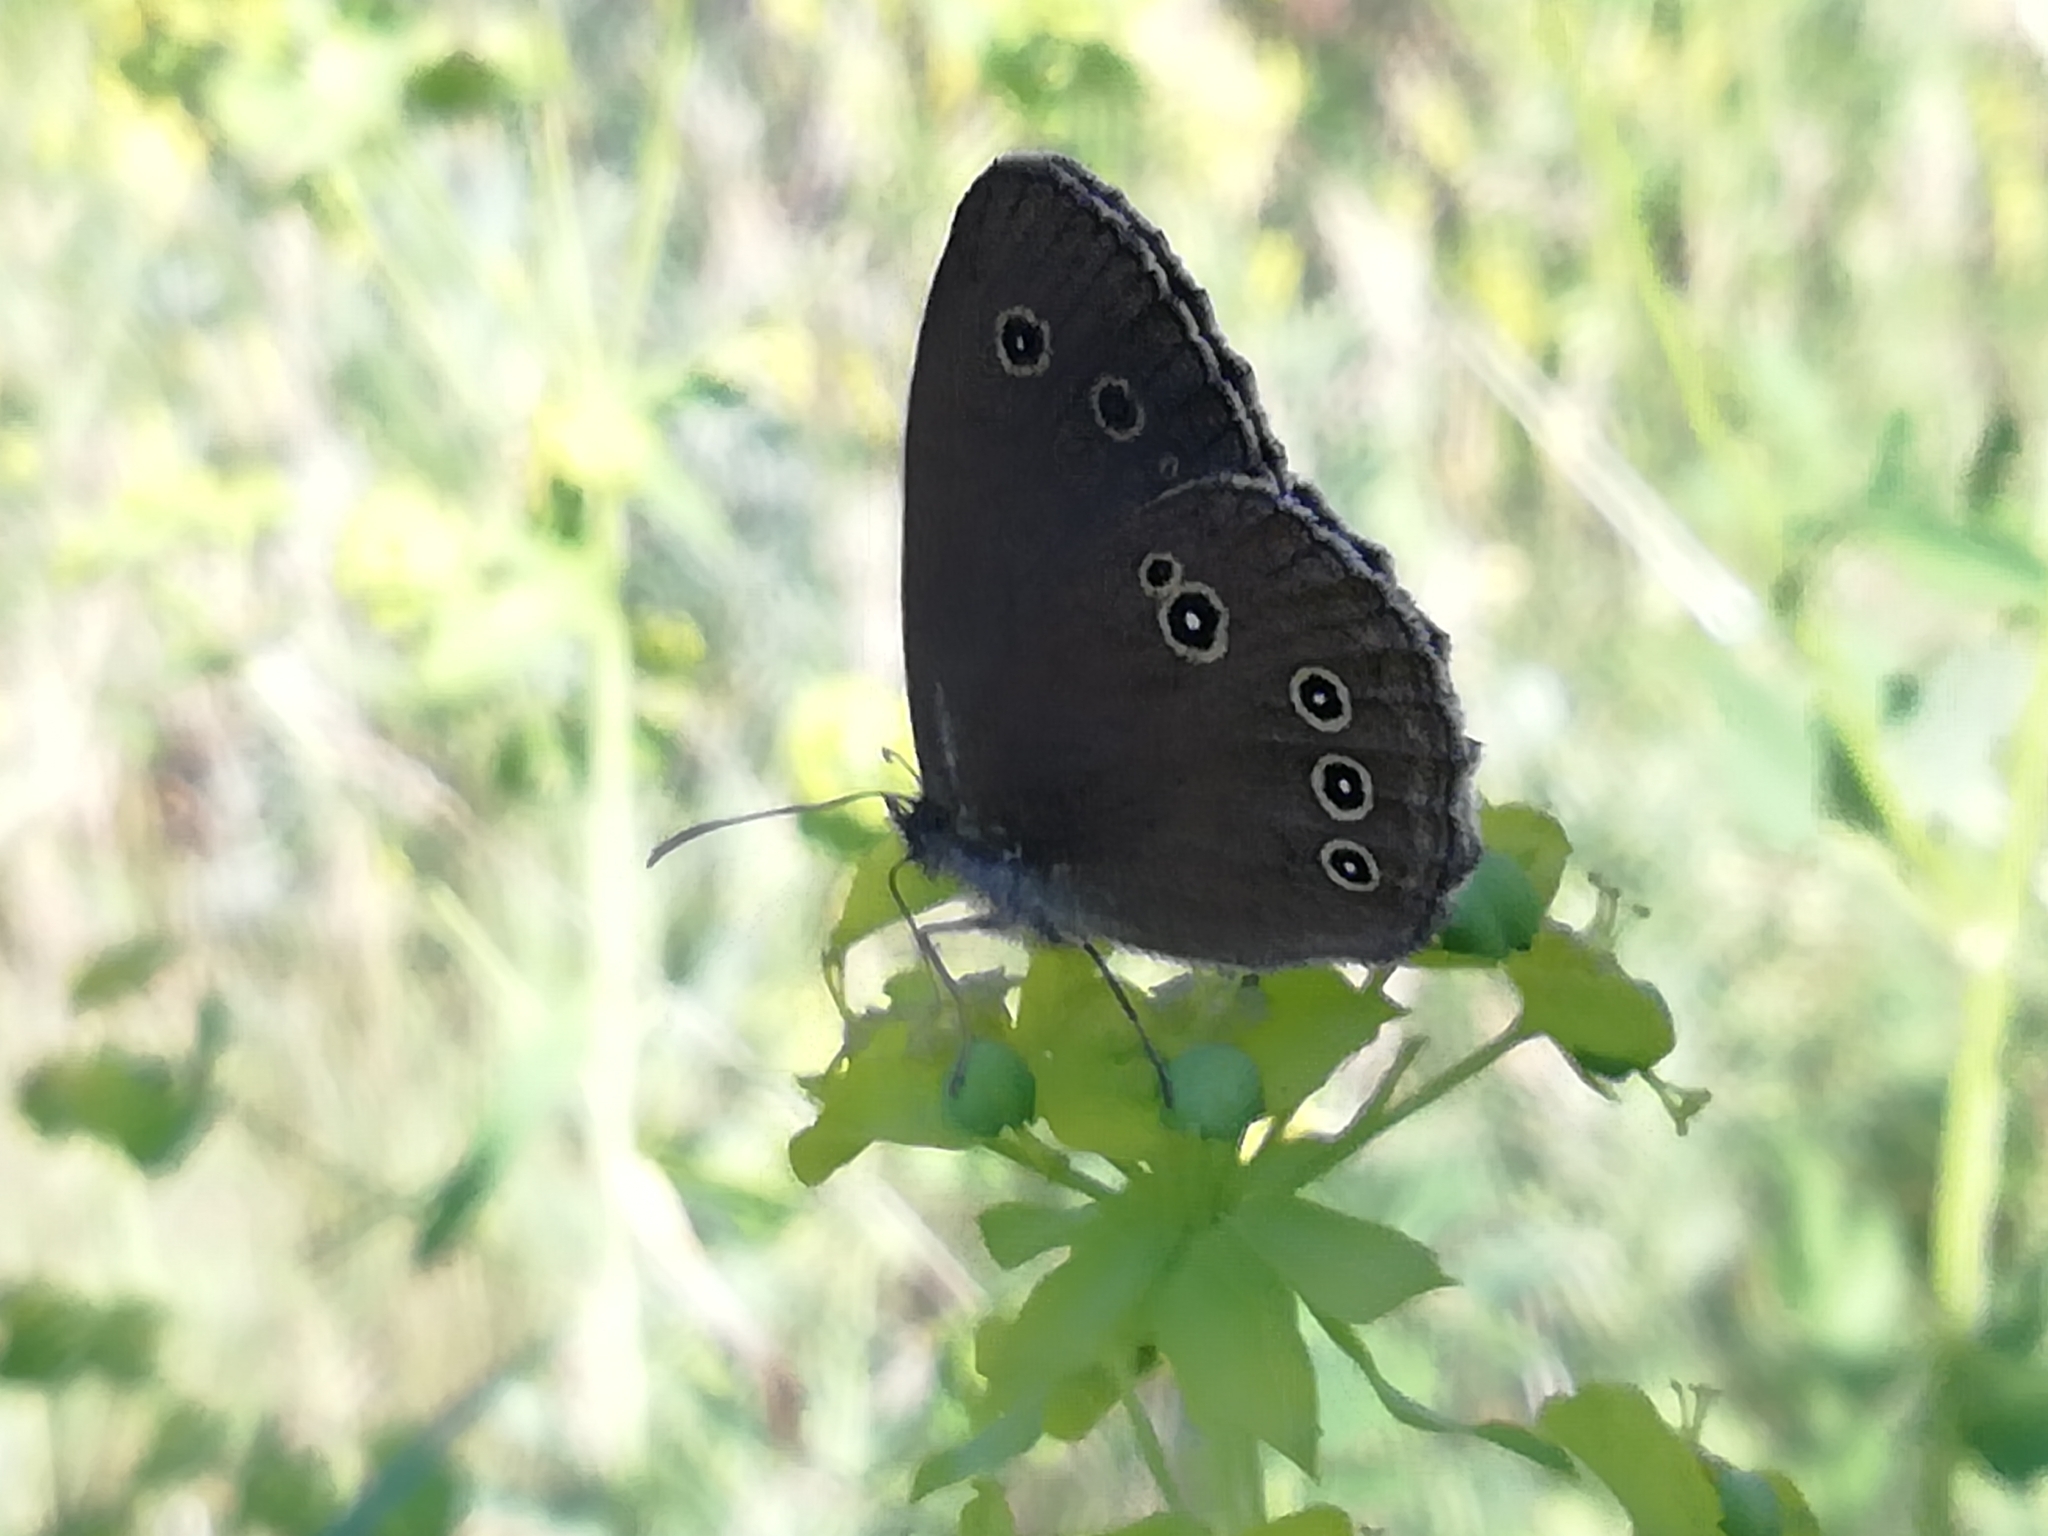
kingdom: Animalia
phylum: Arthropoda
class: Insecta
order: Lepidoptera
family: Nymphalidae
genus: Aphantopus
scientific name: Aphantopus hyperantus
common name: Ringlet
